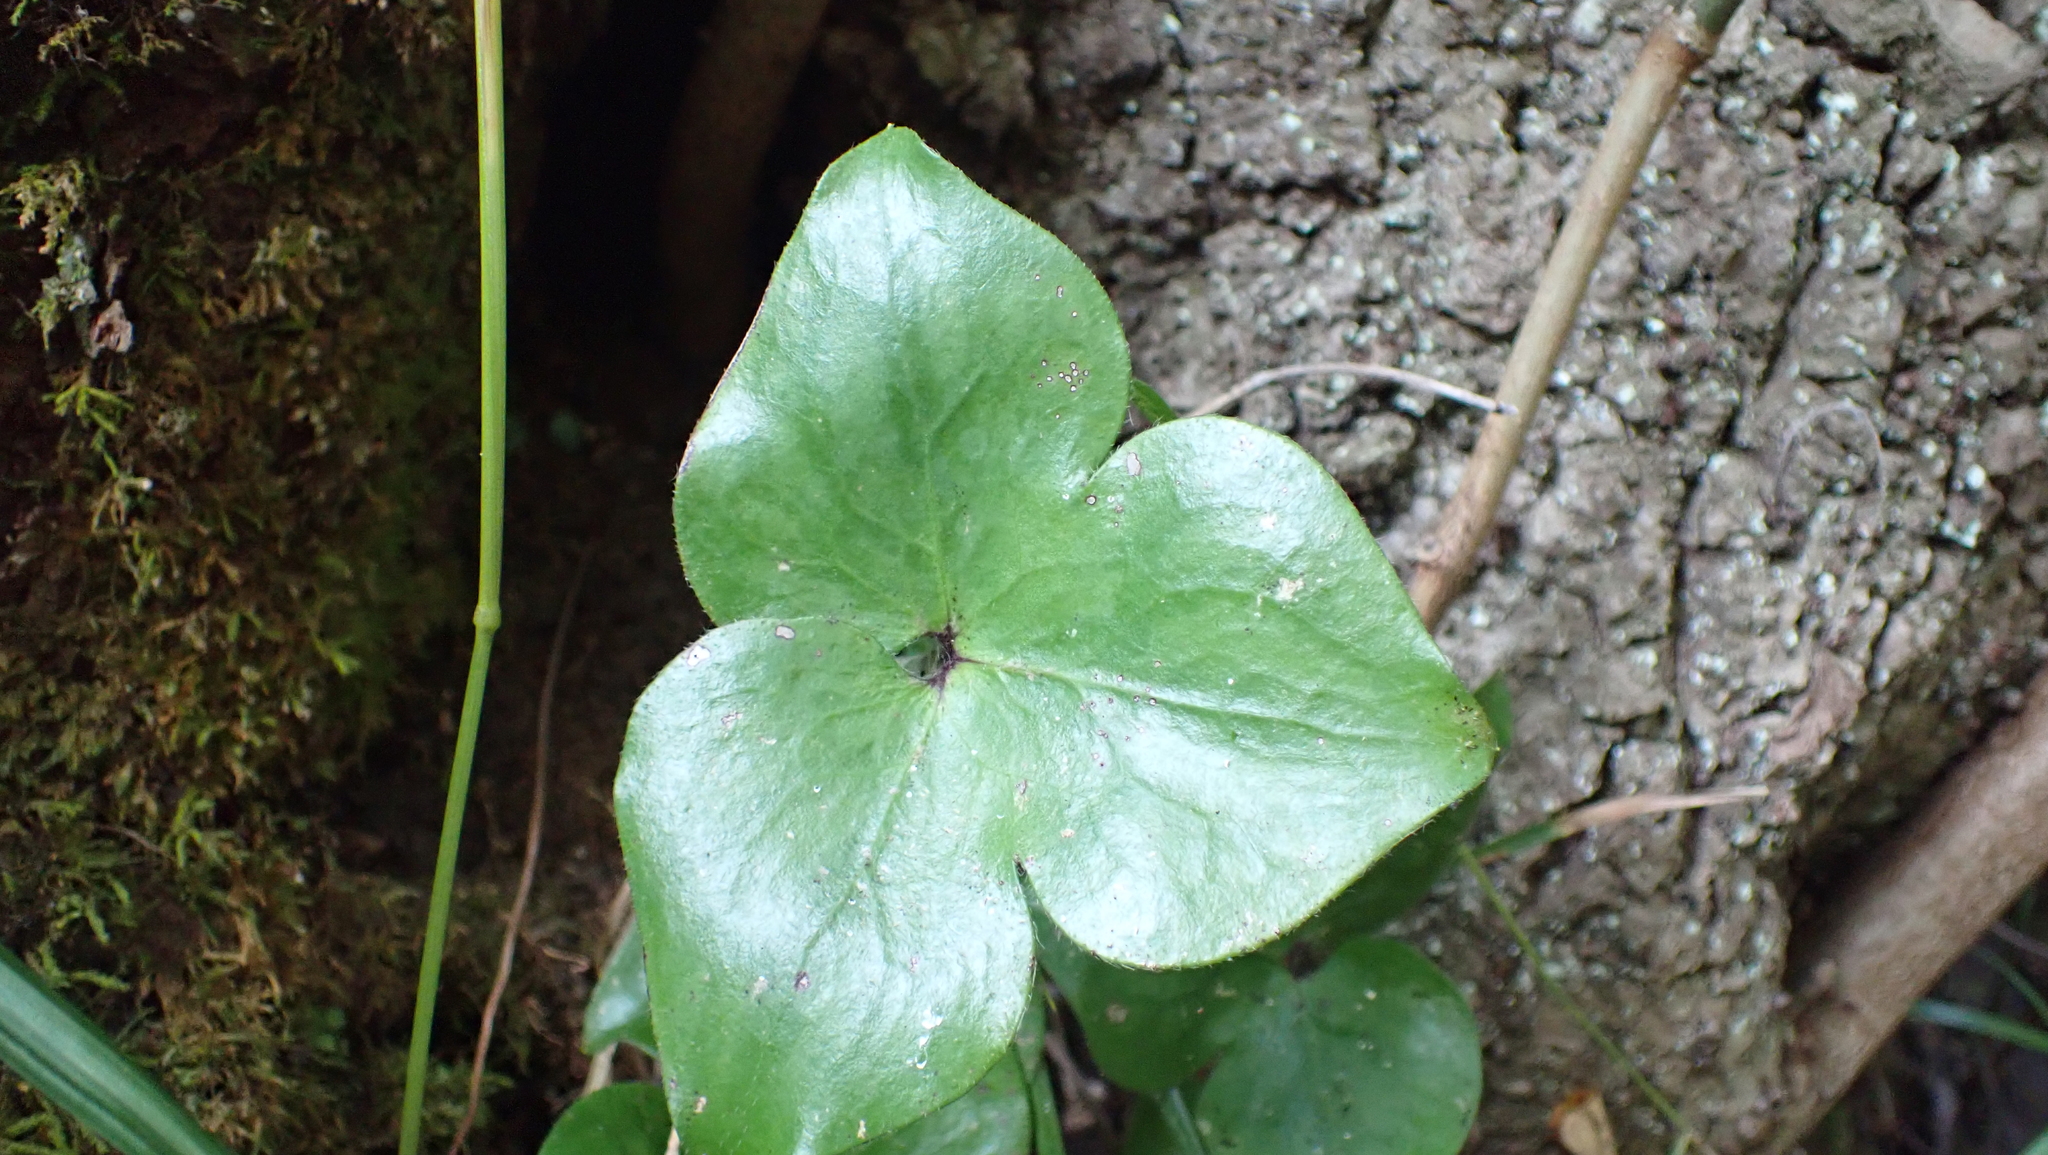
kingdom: Plantae
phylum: Tracheophyta
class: Magnoliopsida
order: Ranunculales
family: Ranunculaceae
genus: Hepatica
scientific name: Hepatica acutiloba
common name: Sharp-lobed hepatica
